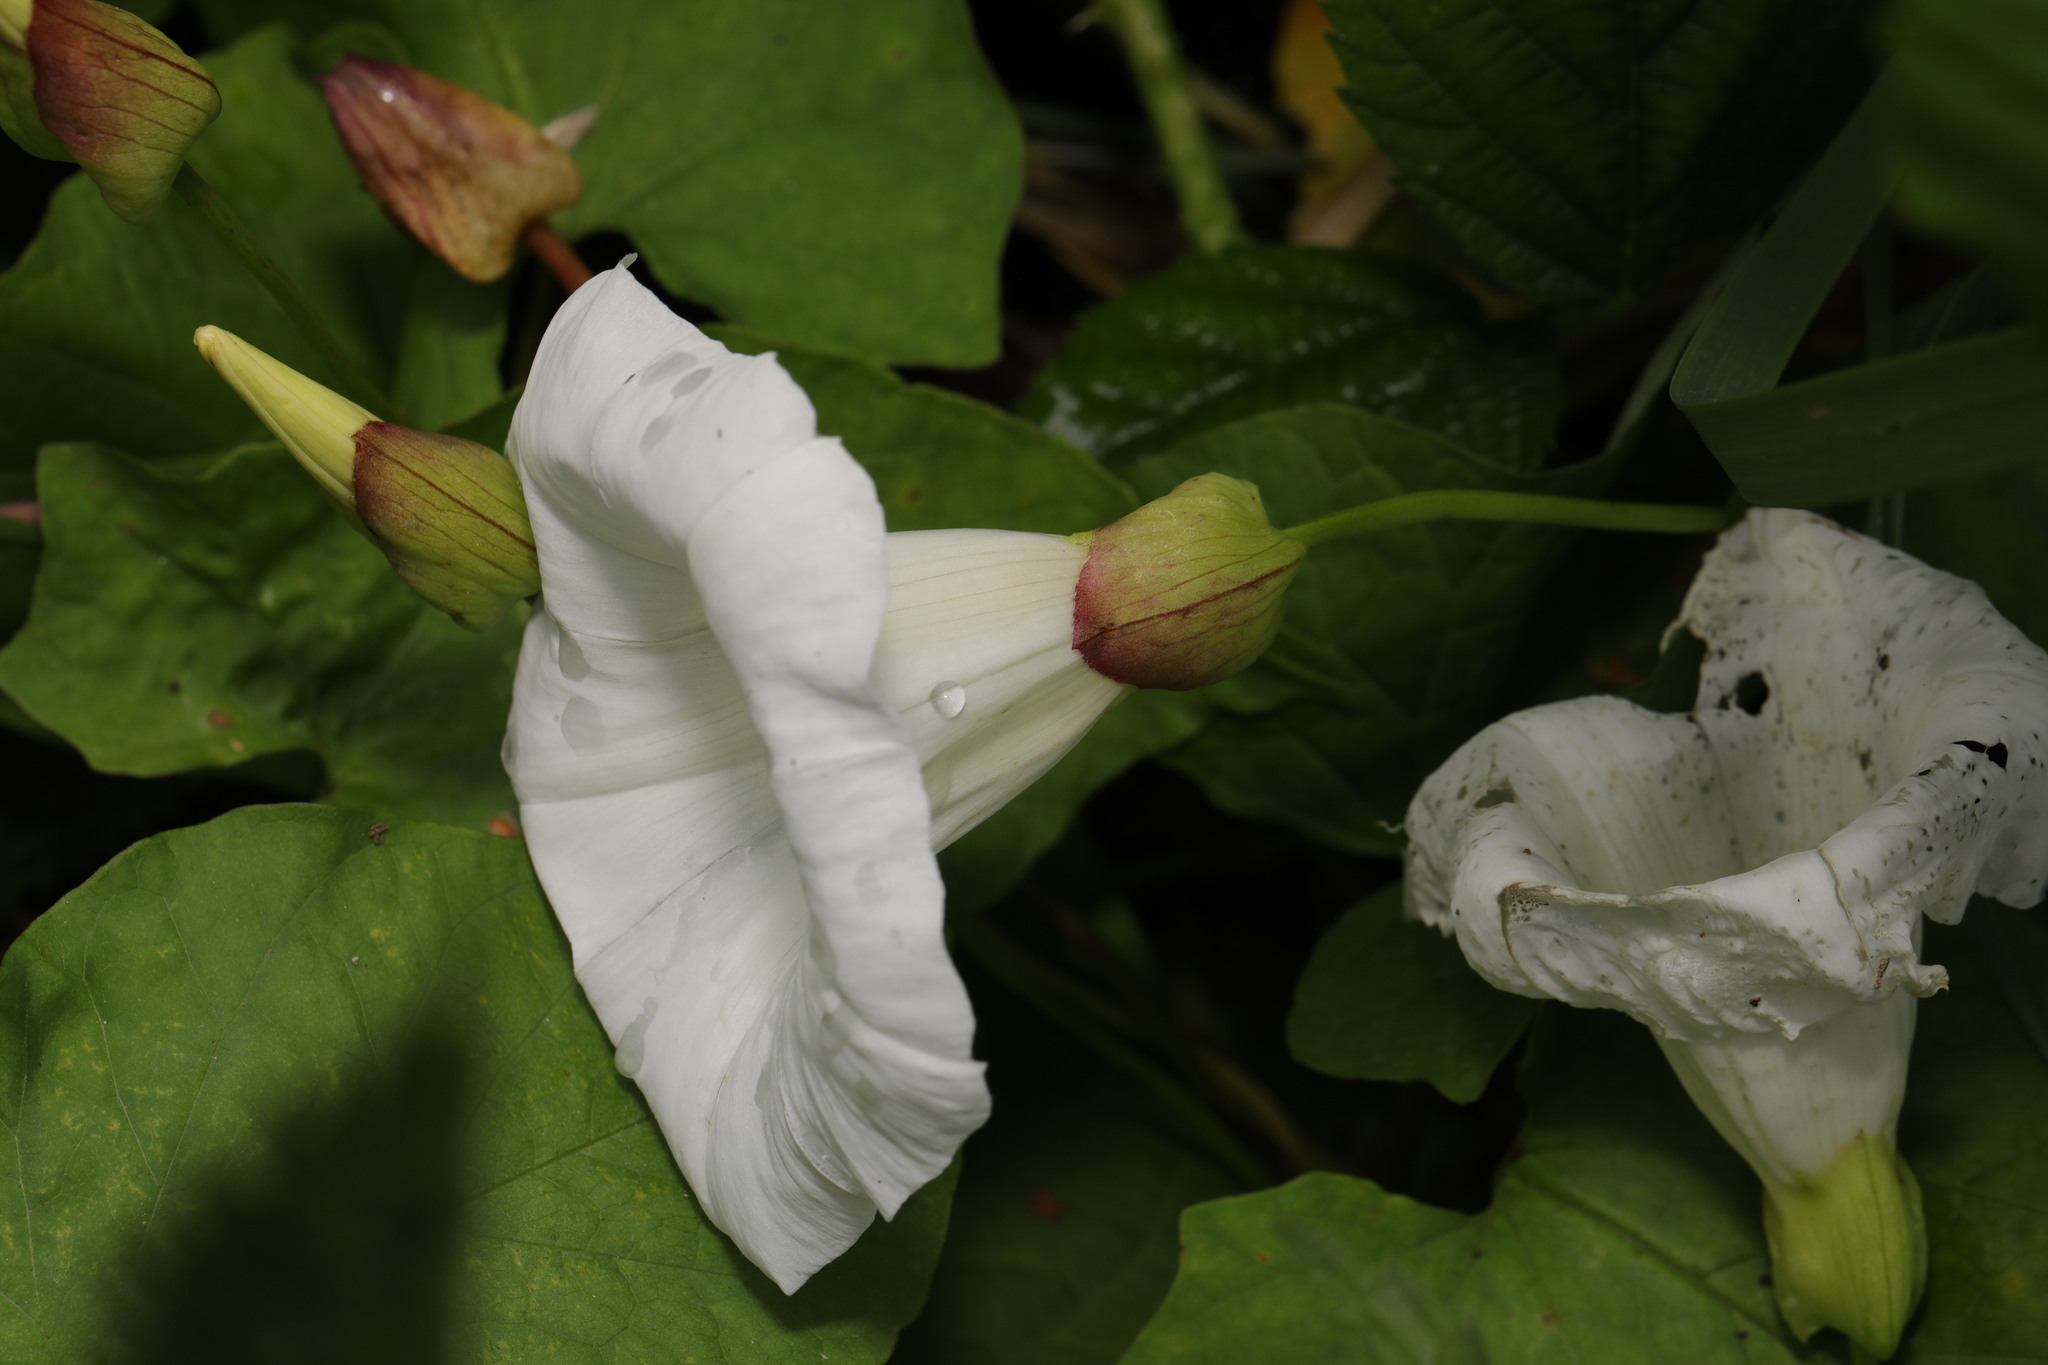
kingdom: Plantae
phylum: Tracheophyta
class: Magnoliopsida
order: Solanales
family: Convolvulaceae
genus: Calystegia
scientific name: Calystegia silvatica
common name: Large bindweed
